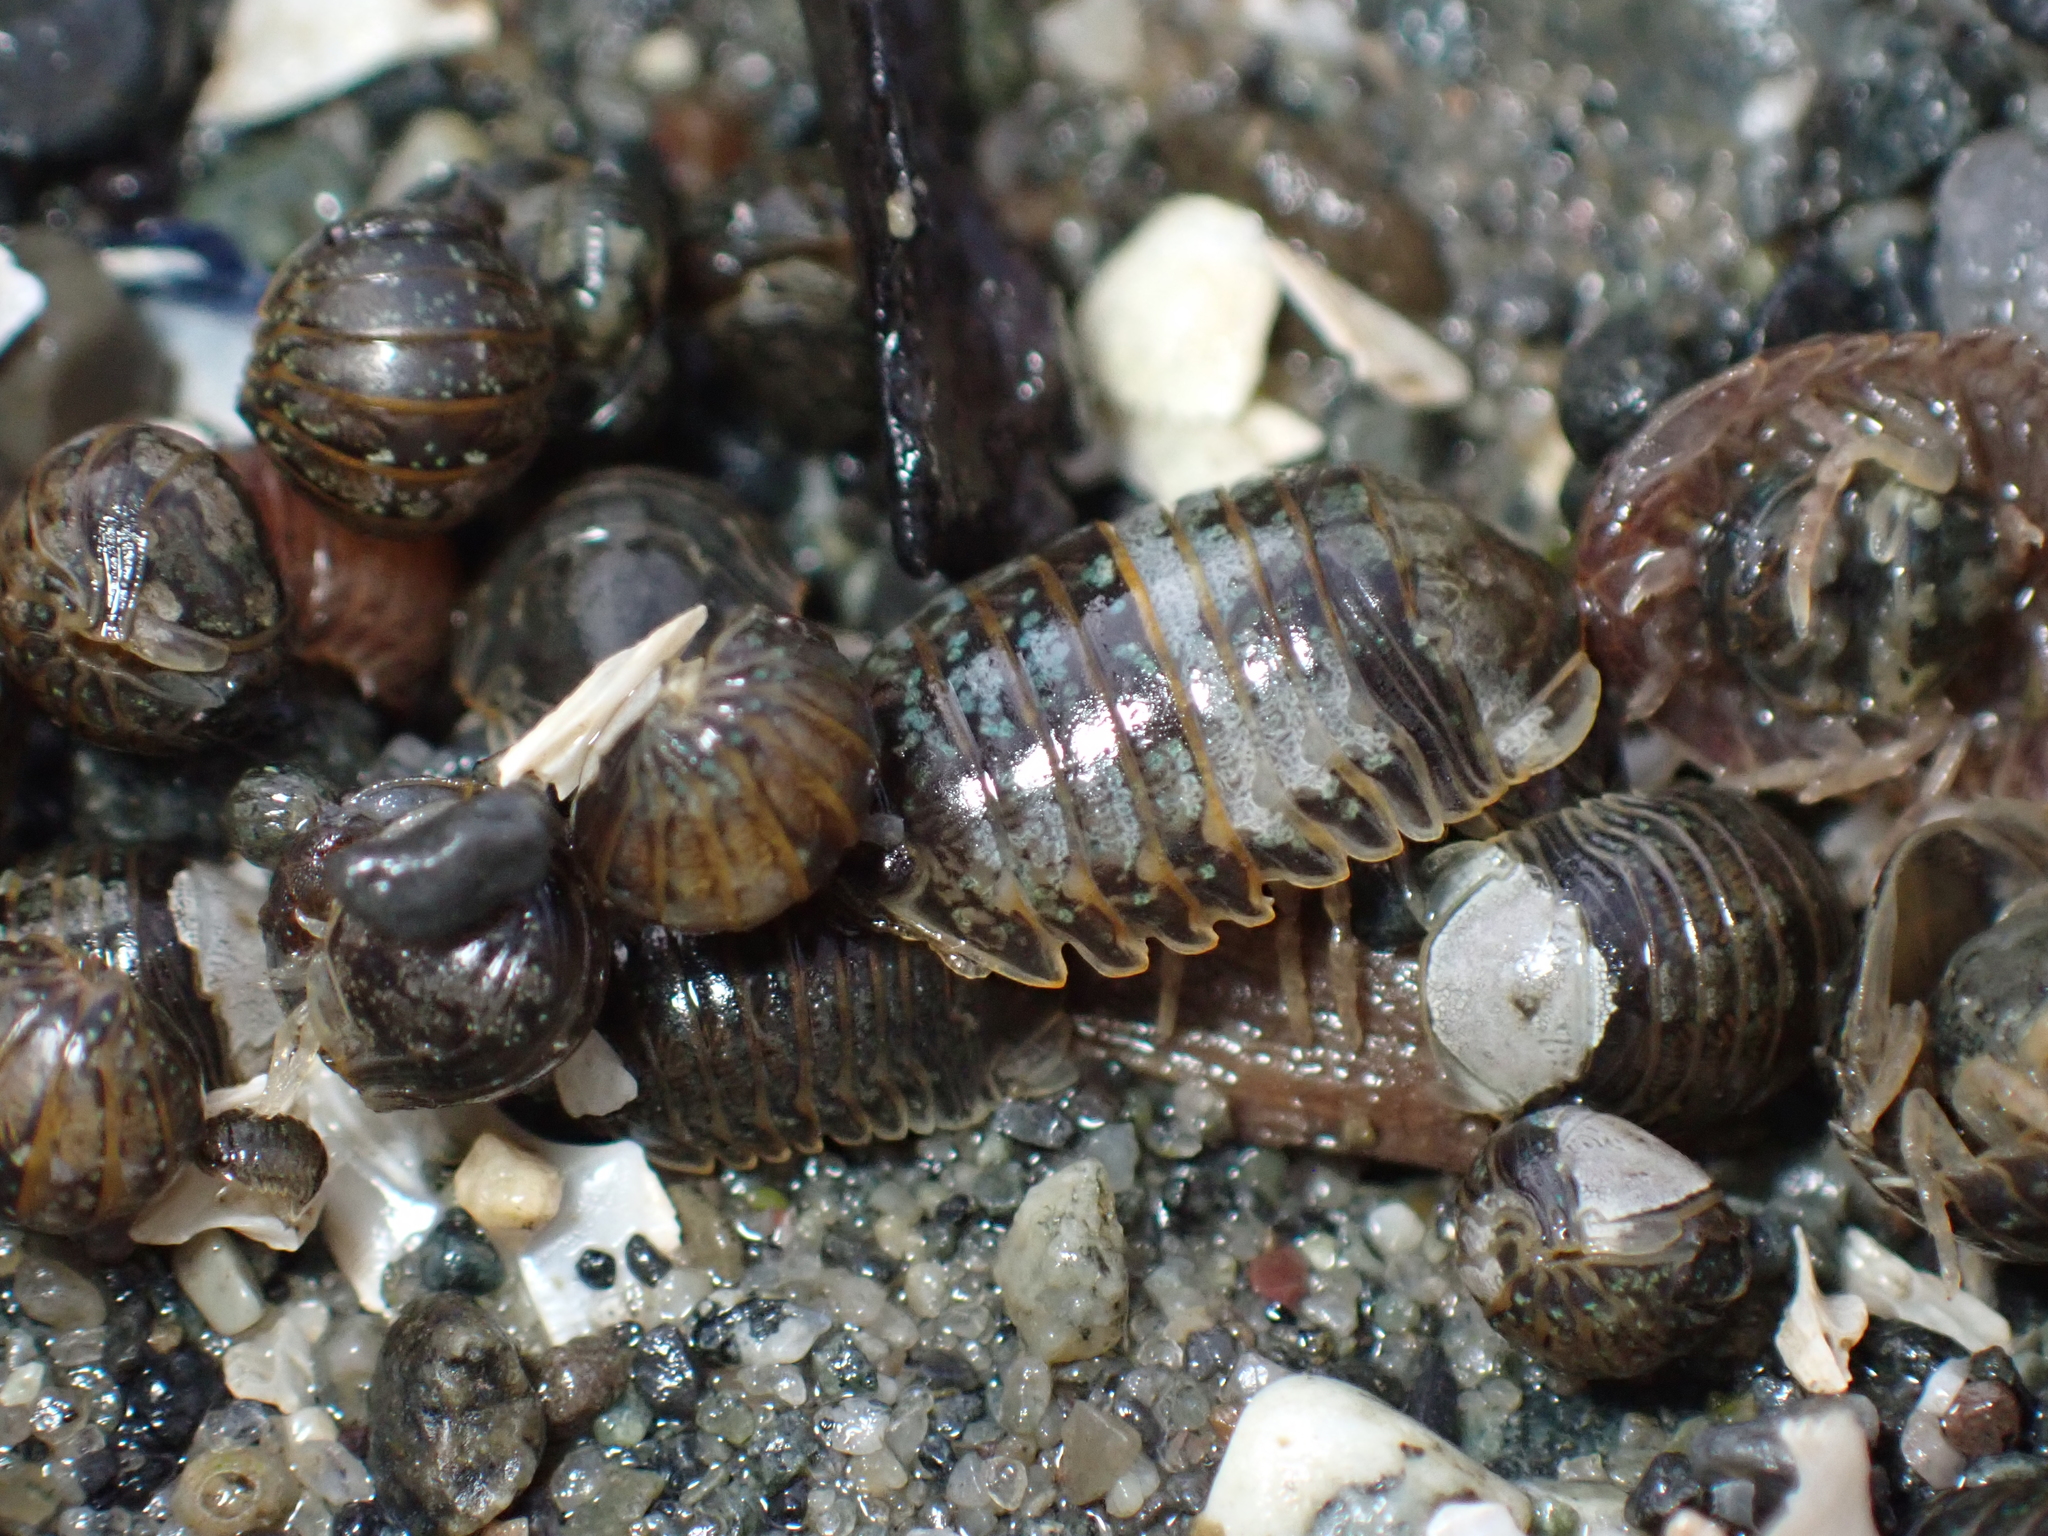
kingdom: Animalia
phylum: Arthropoda
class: Malacostraca
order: Isopoda
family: Sphaeromatidae
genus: Gnorimosphaeroma
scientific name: Gnorimosphaeroma oregonense
